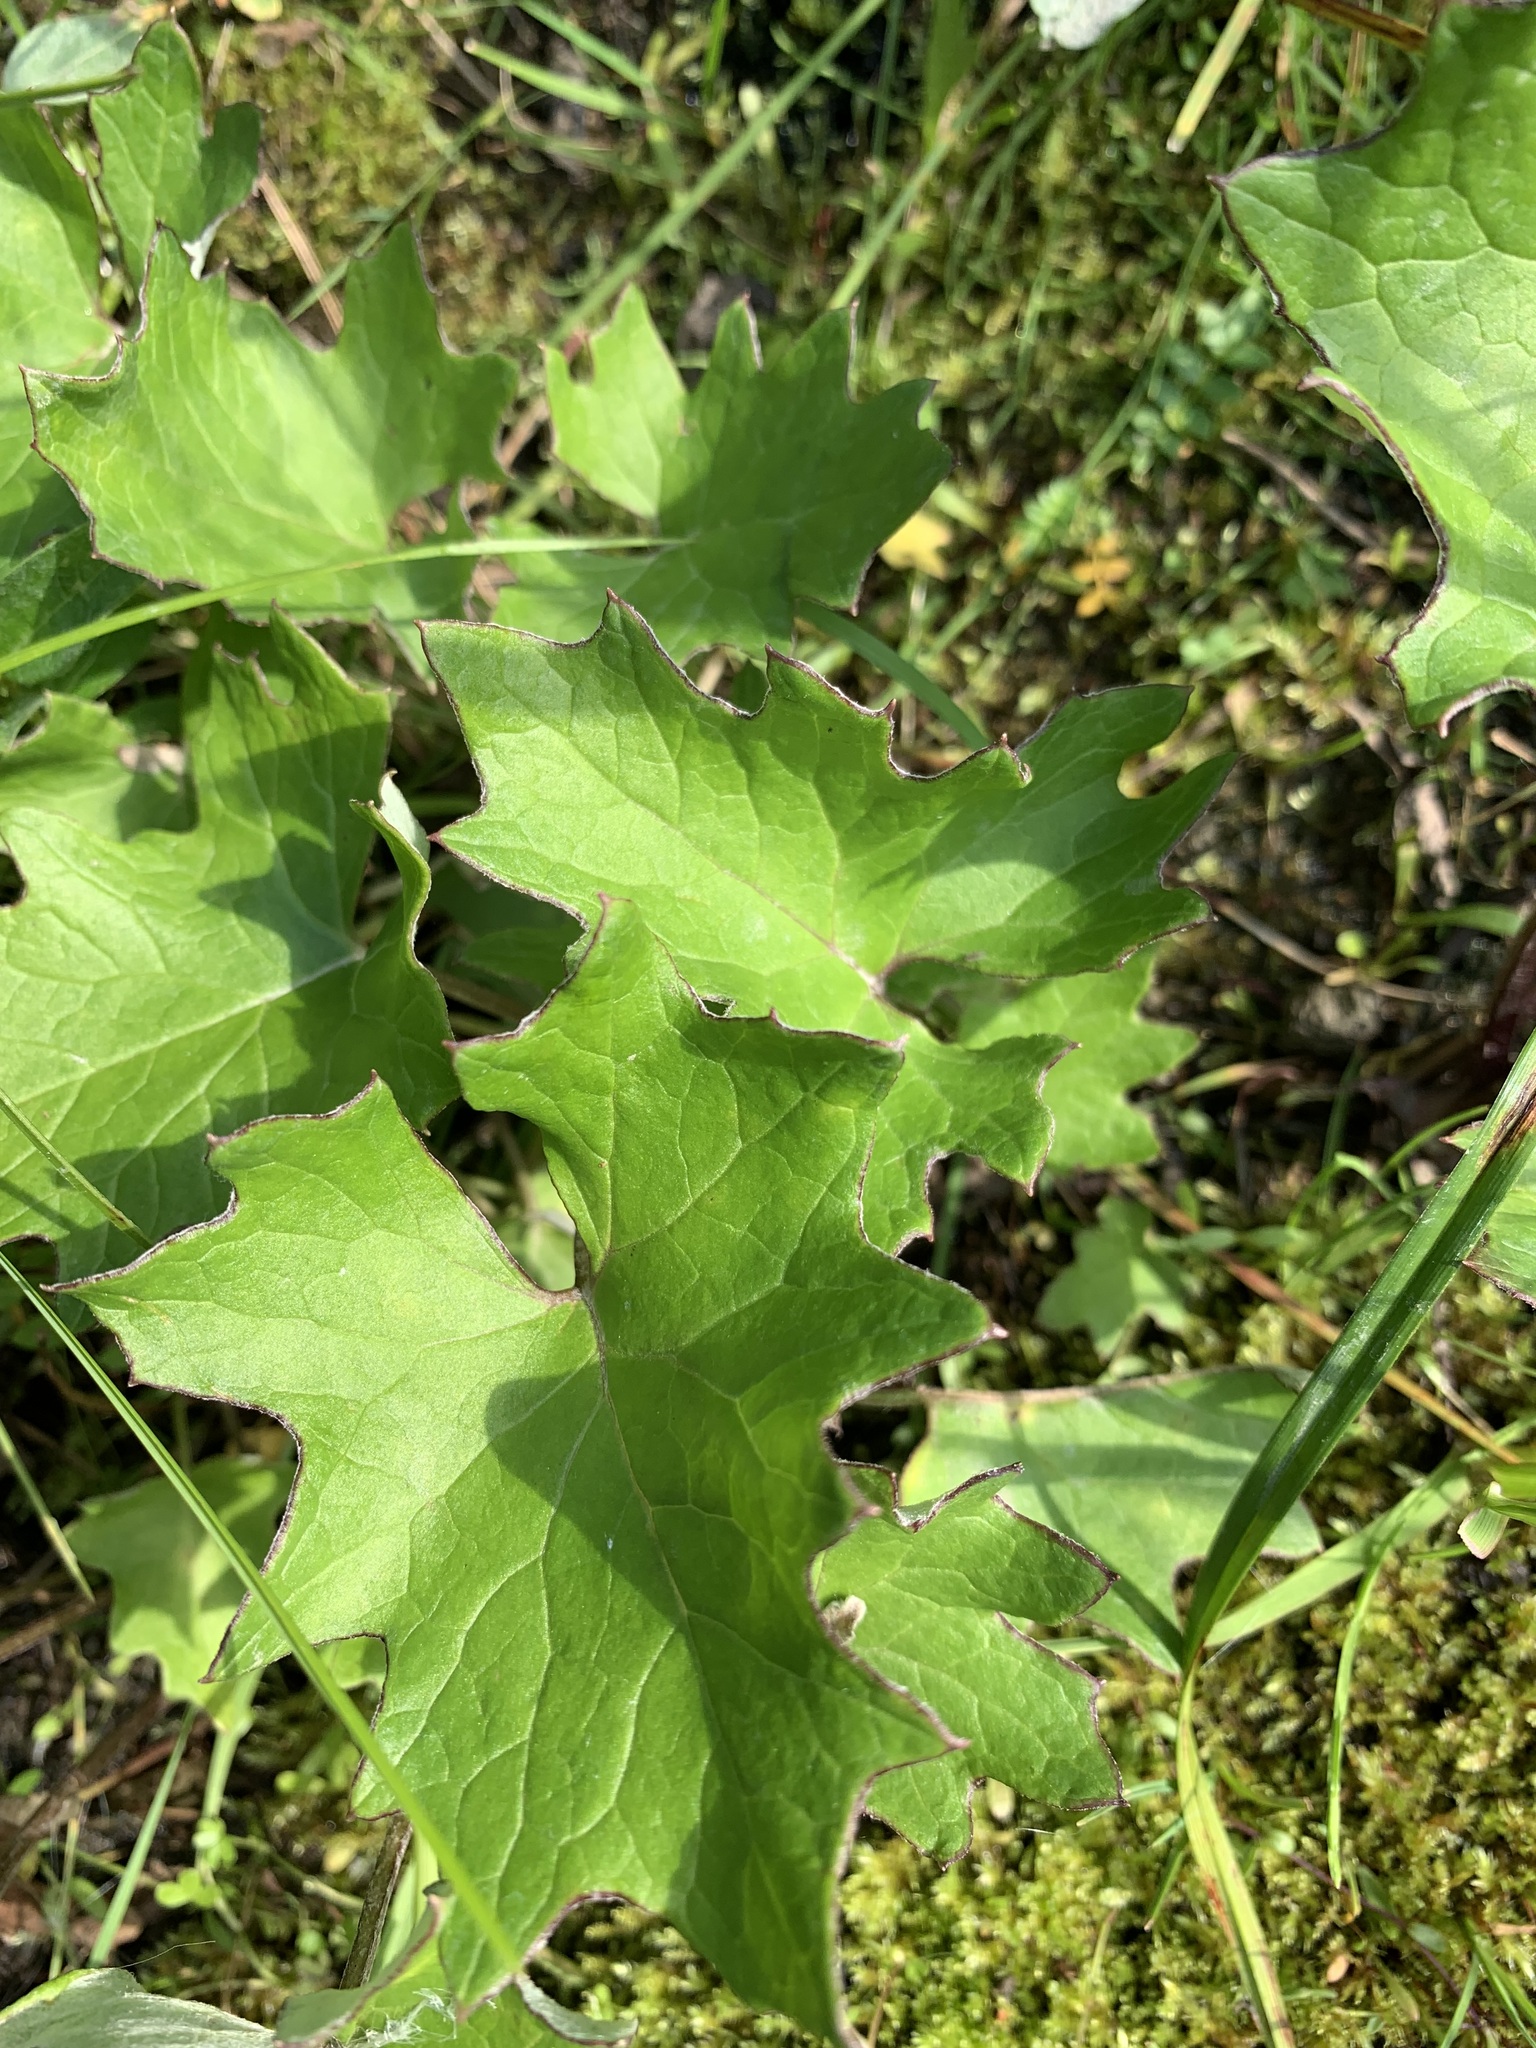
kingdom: Plantae
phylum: Tracheophyta
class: Magnoliopsida
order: Asterales
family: Asteraceae
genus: Petasites
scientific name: Petasites frigidus
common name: Arctic butterbur
